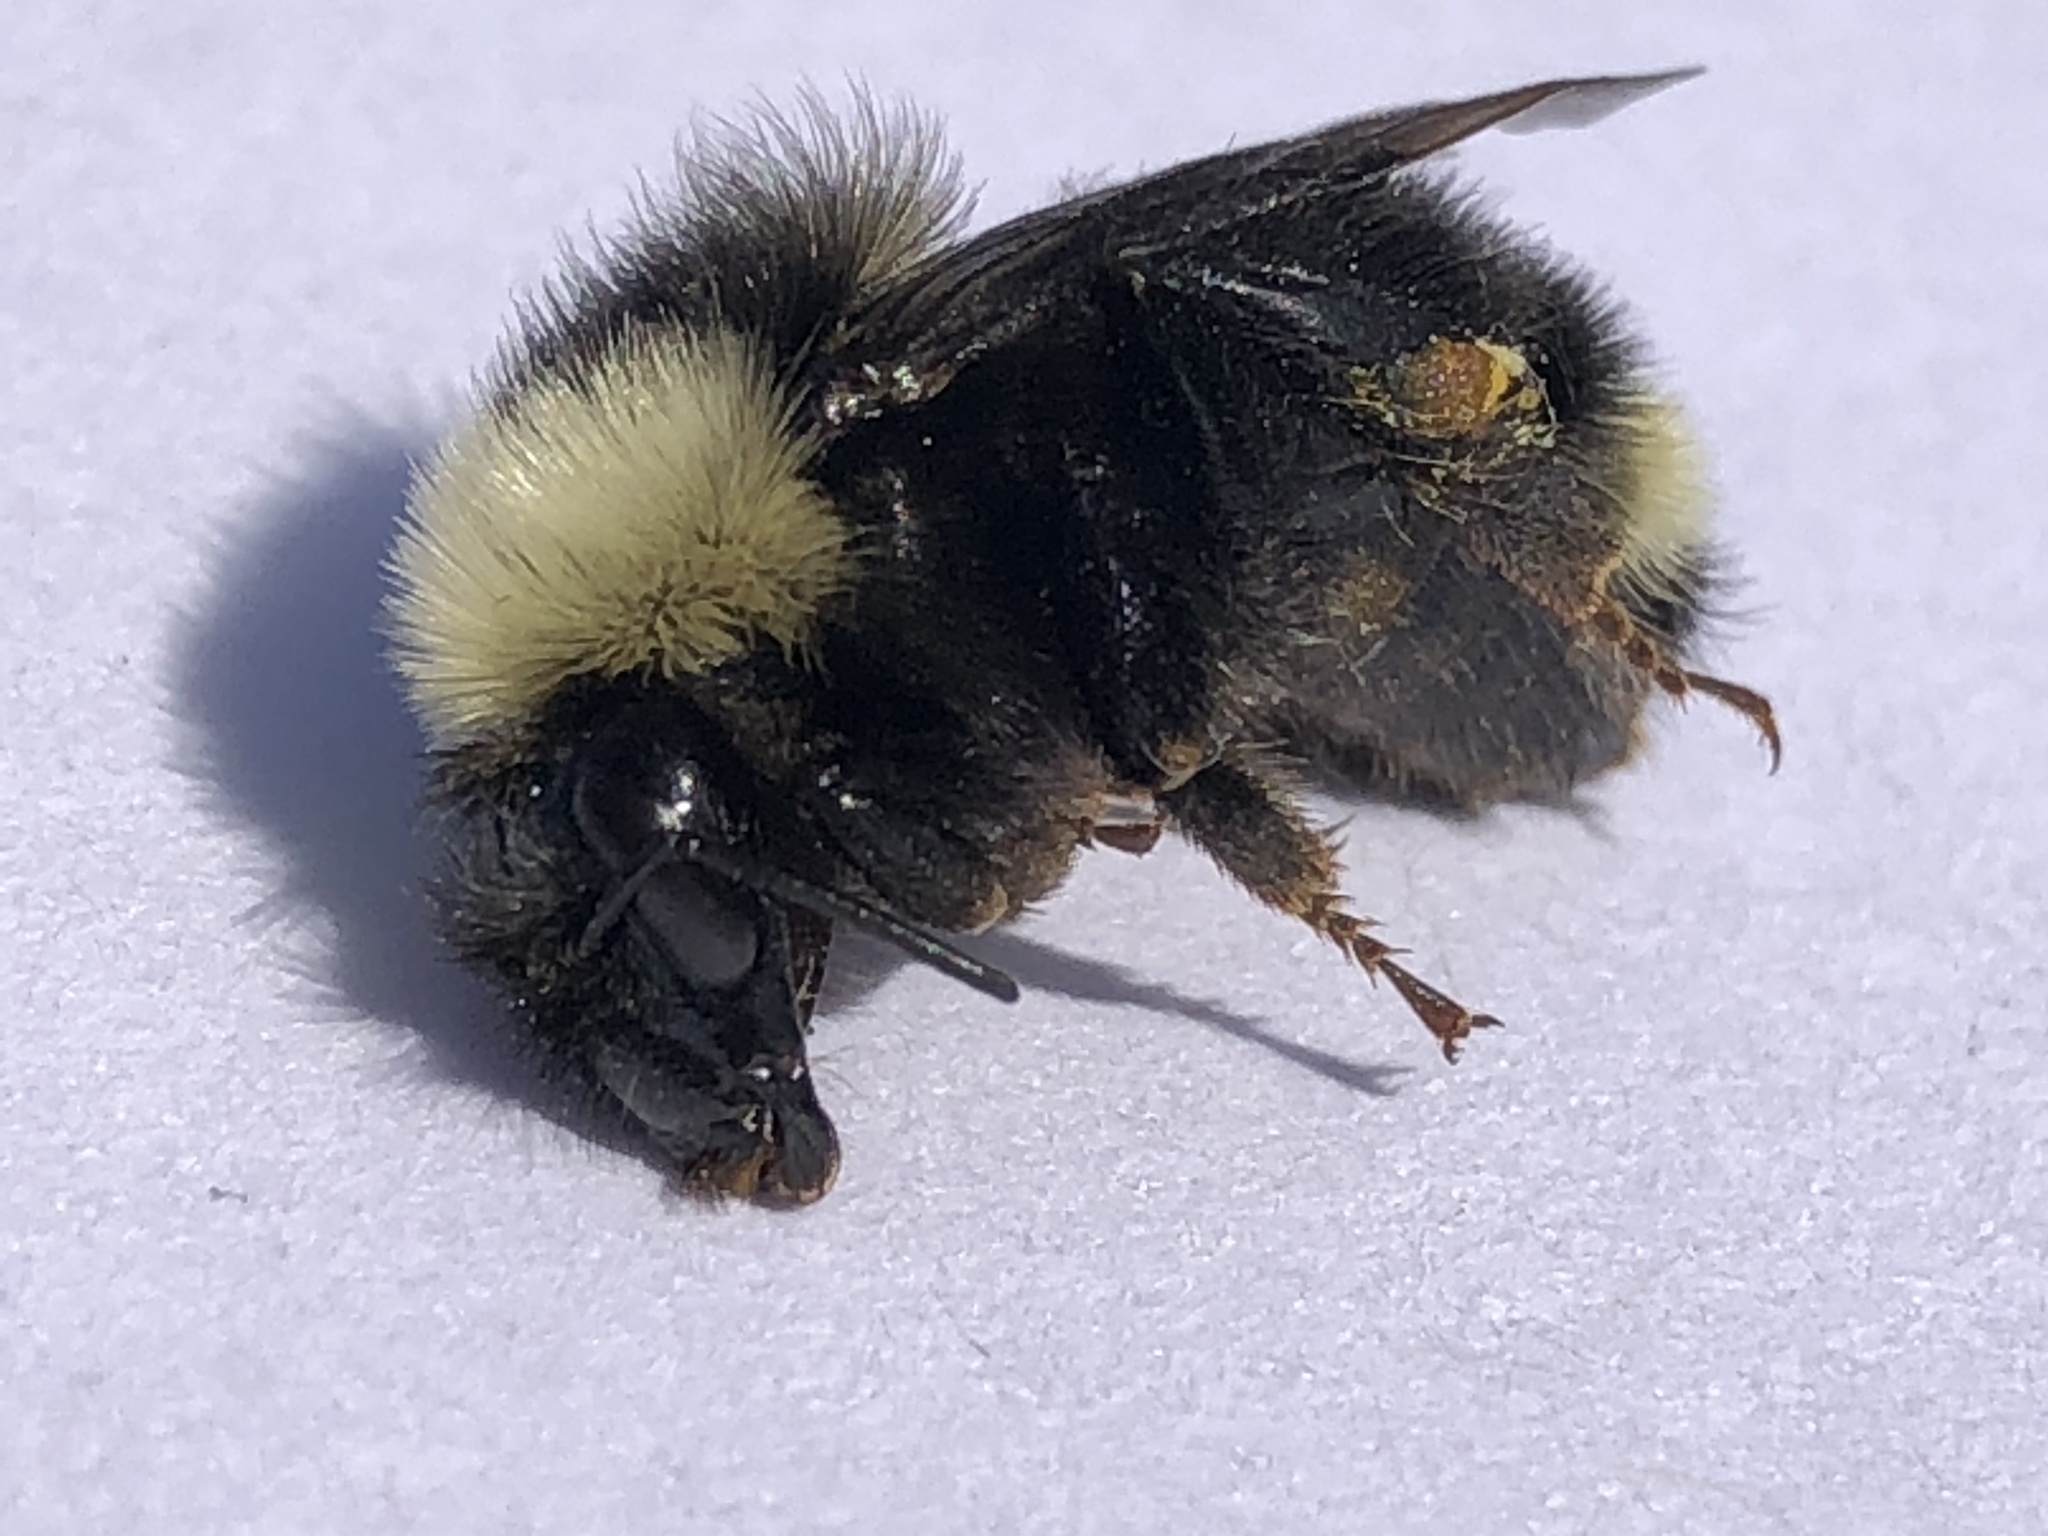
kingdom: Animalia
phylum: Arthropoda
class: Insecta
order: Hymenoptera
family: Apidae
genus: Bombus
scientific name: Bombus californicus
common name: California bumble bee
